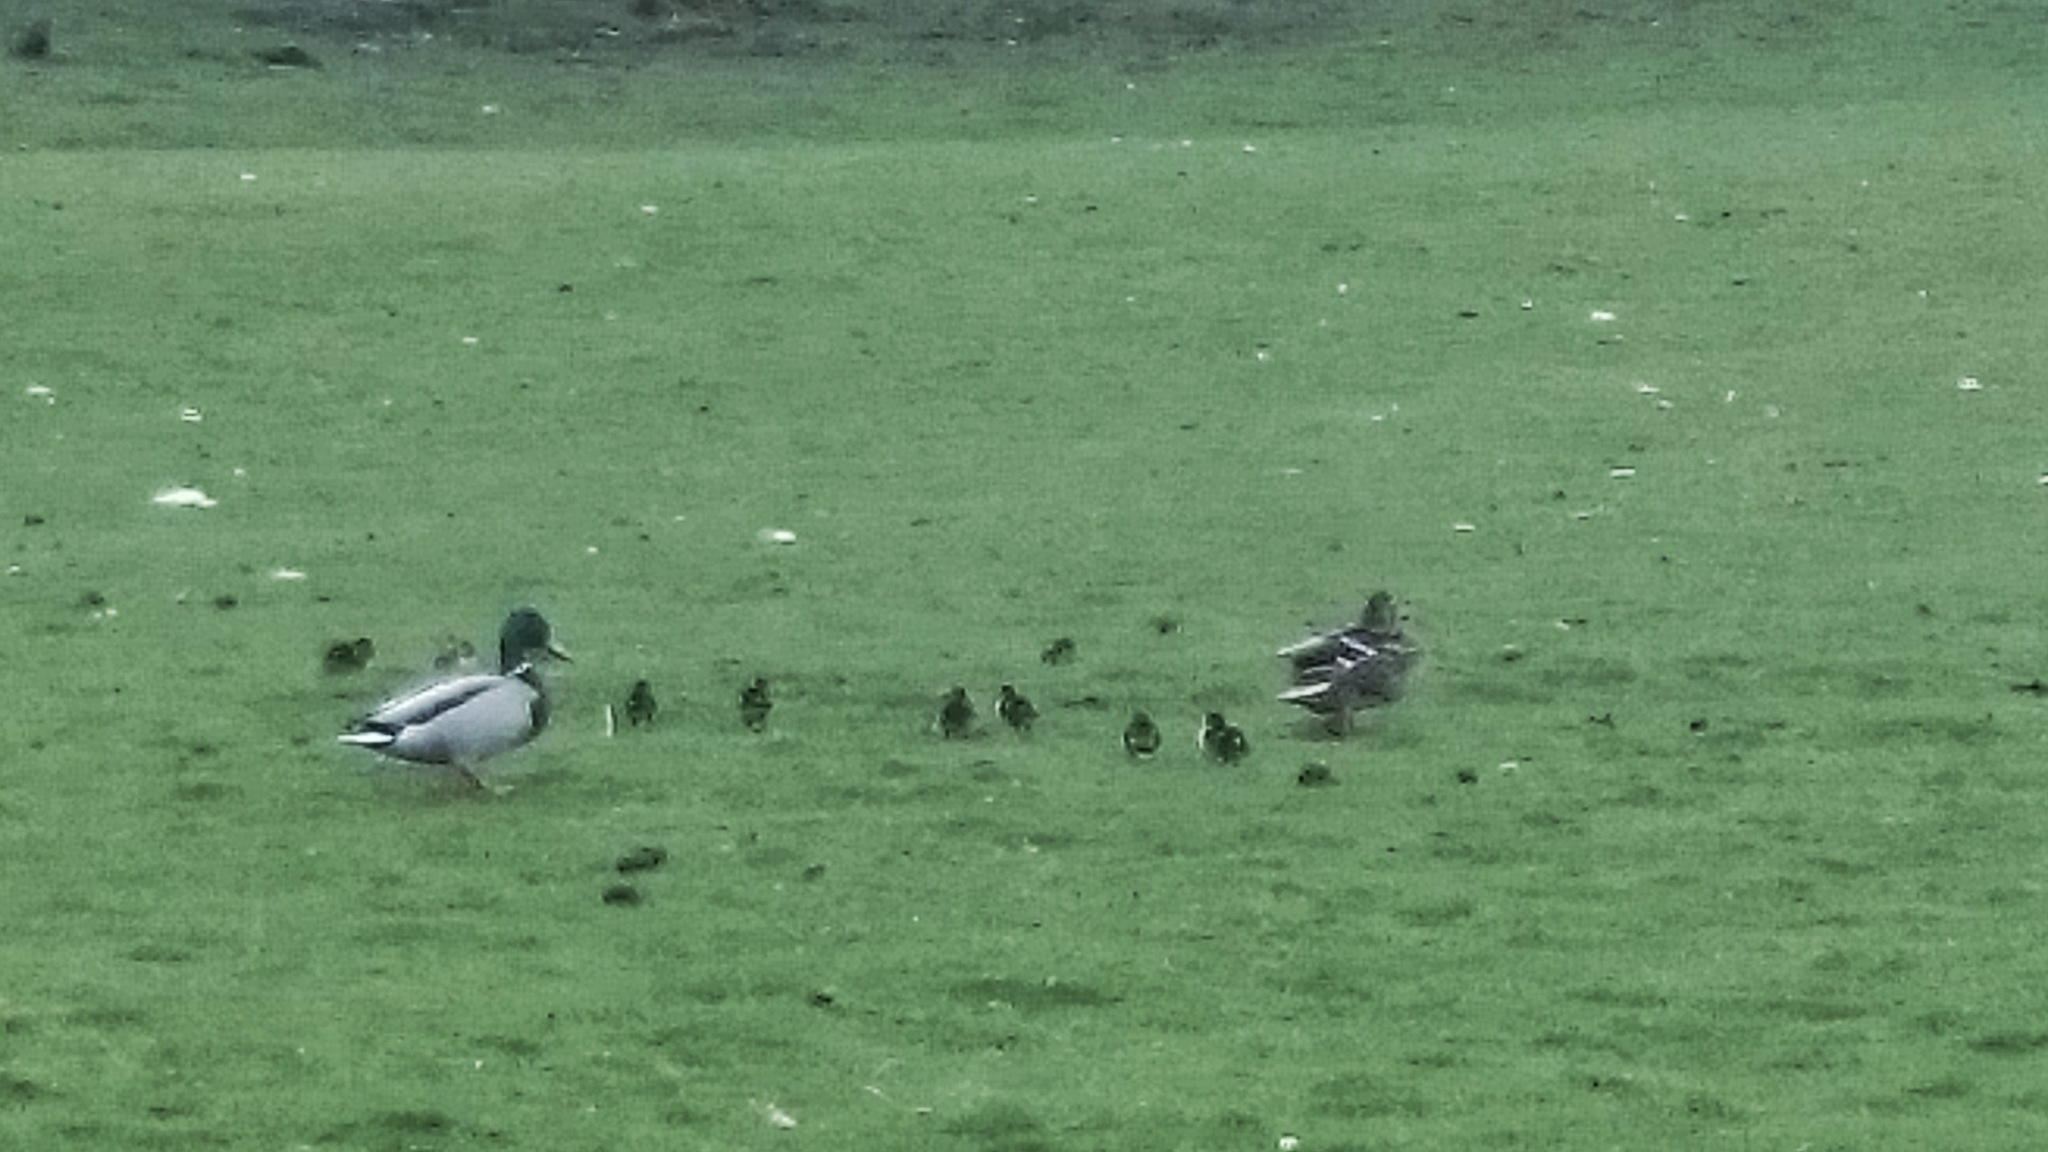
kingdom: Animalia
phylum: Chordata
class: Aves
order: Anseriformes
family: Anatidae
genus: Anas
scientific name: Anas platyrhynchos
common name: Mallard
